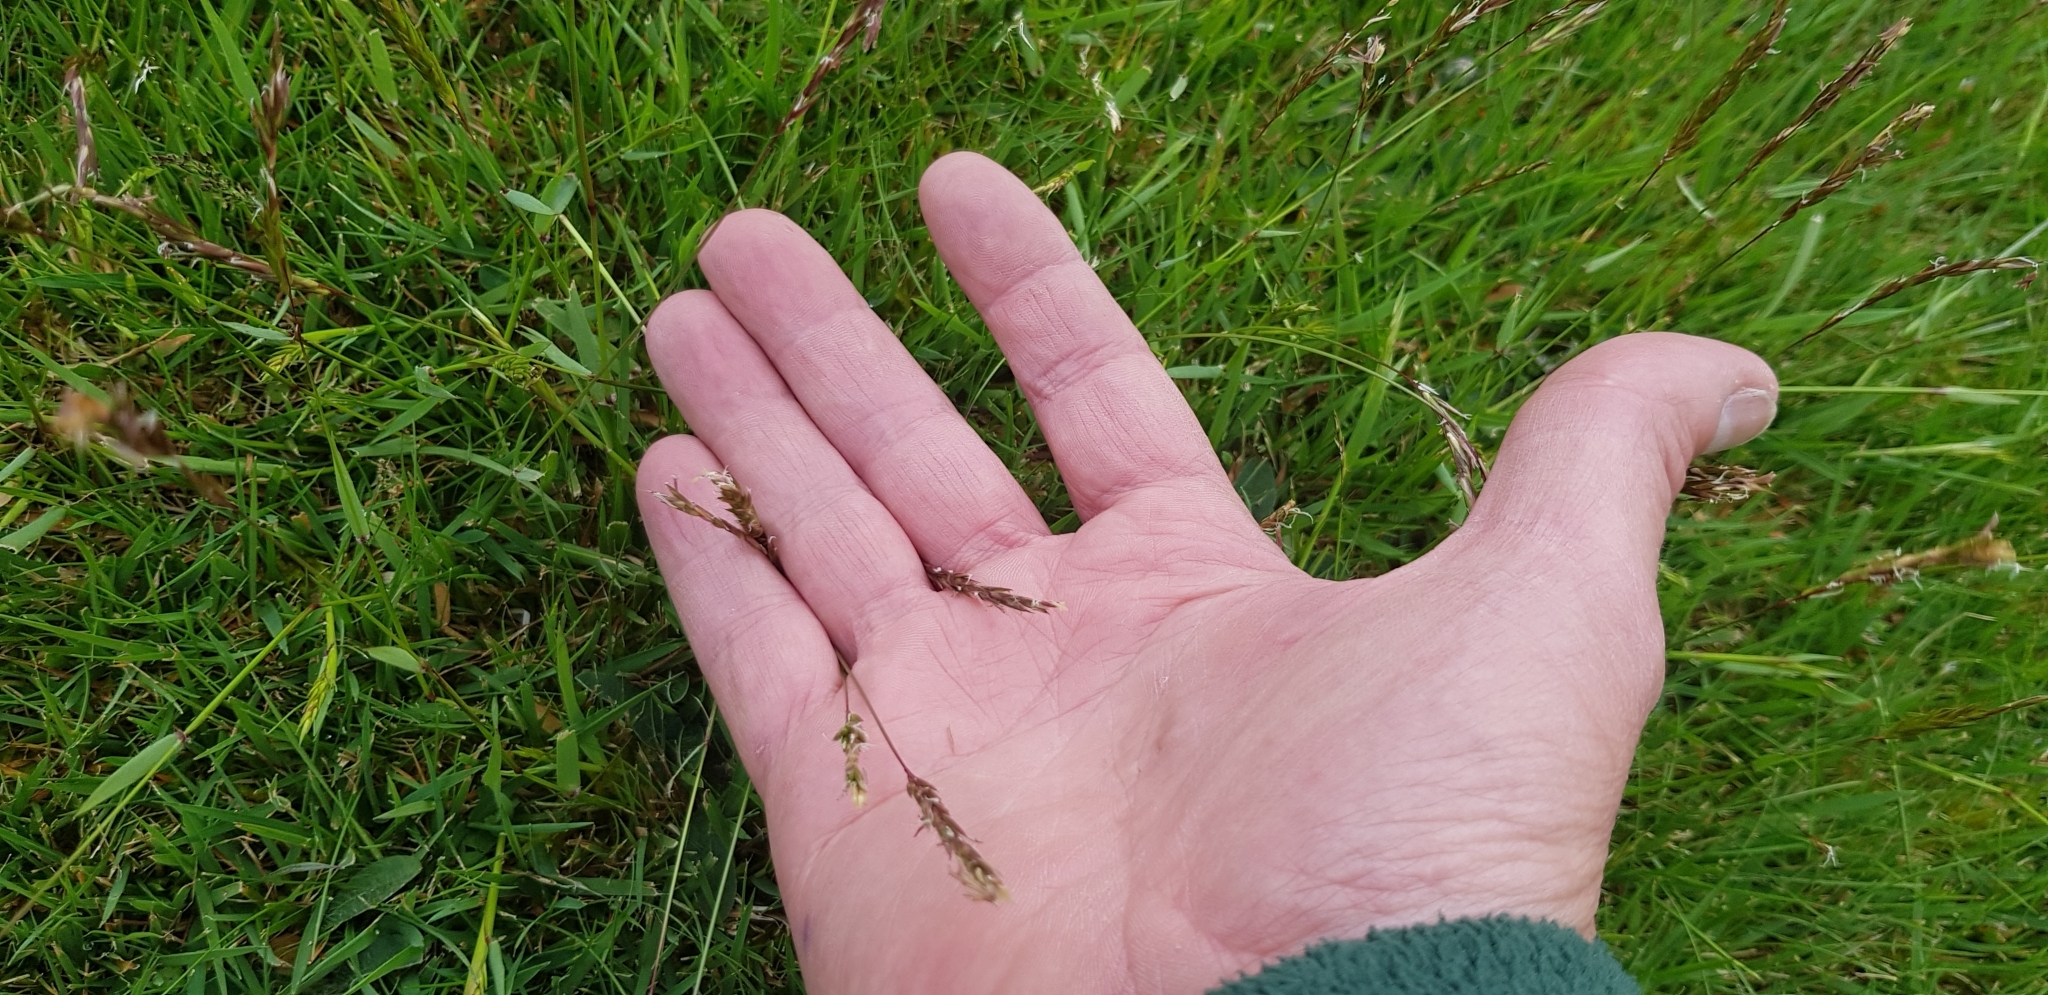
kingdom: Plantae
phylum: Tracheophyta
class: Liliopsida
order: Poales
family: Poaceae
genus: Anthoxanthum
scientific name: Anthoxanthum odoratum
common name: Sweet vernalgrass
